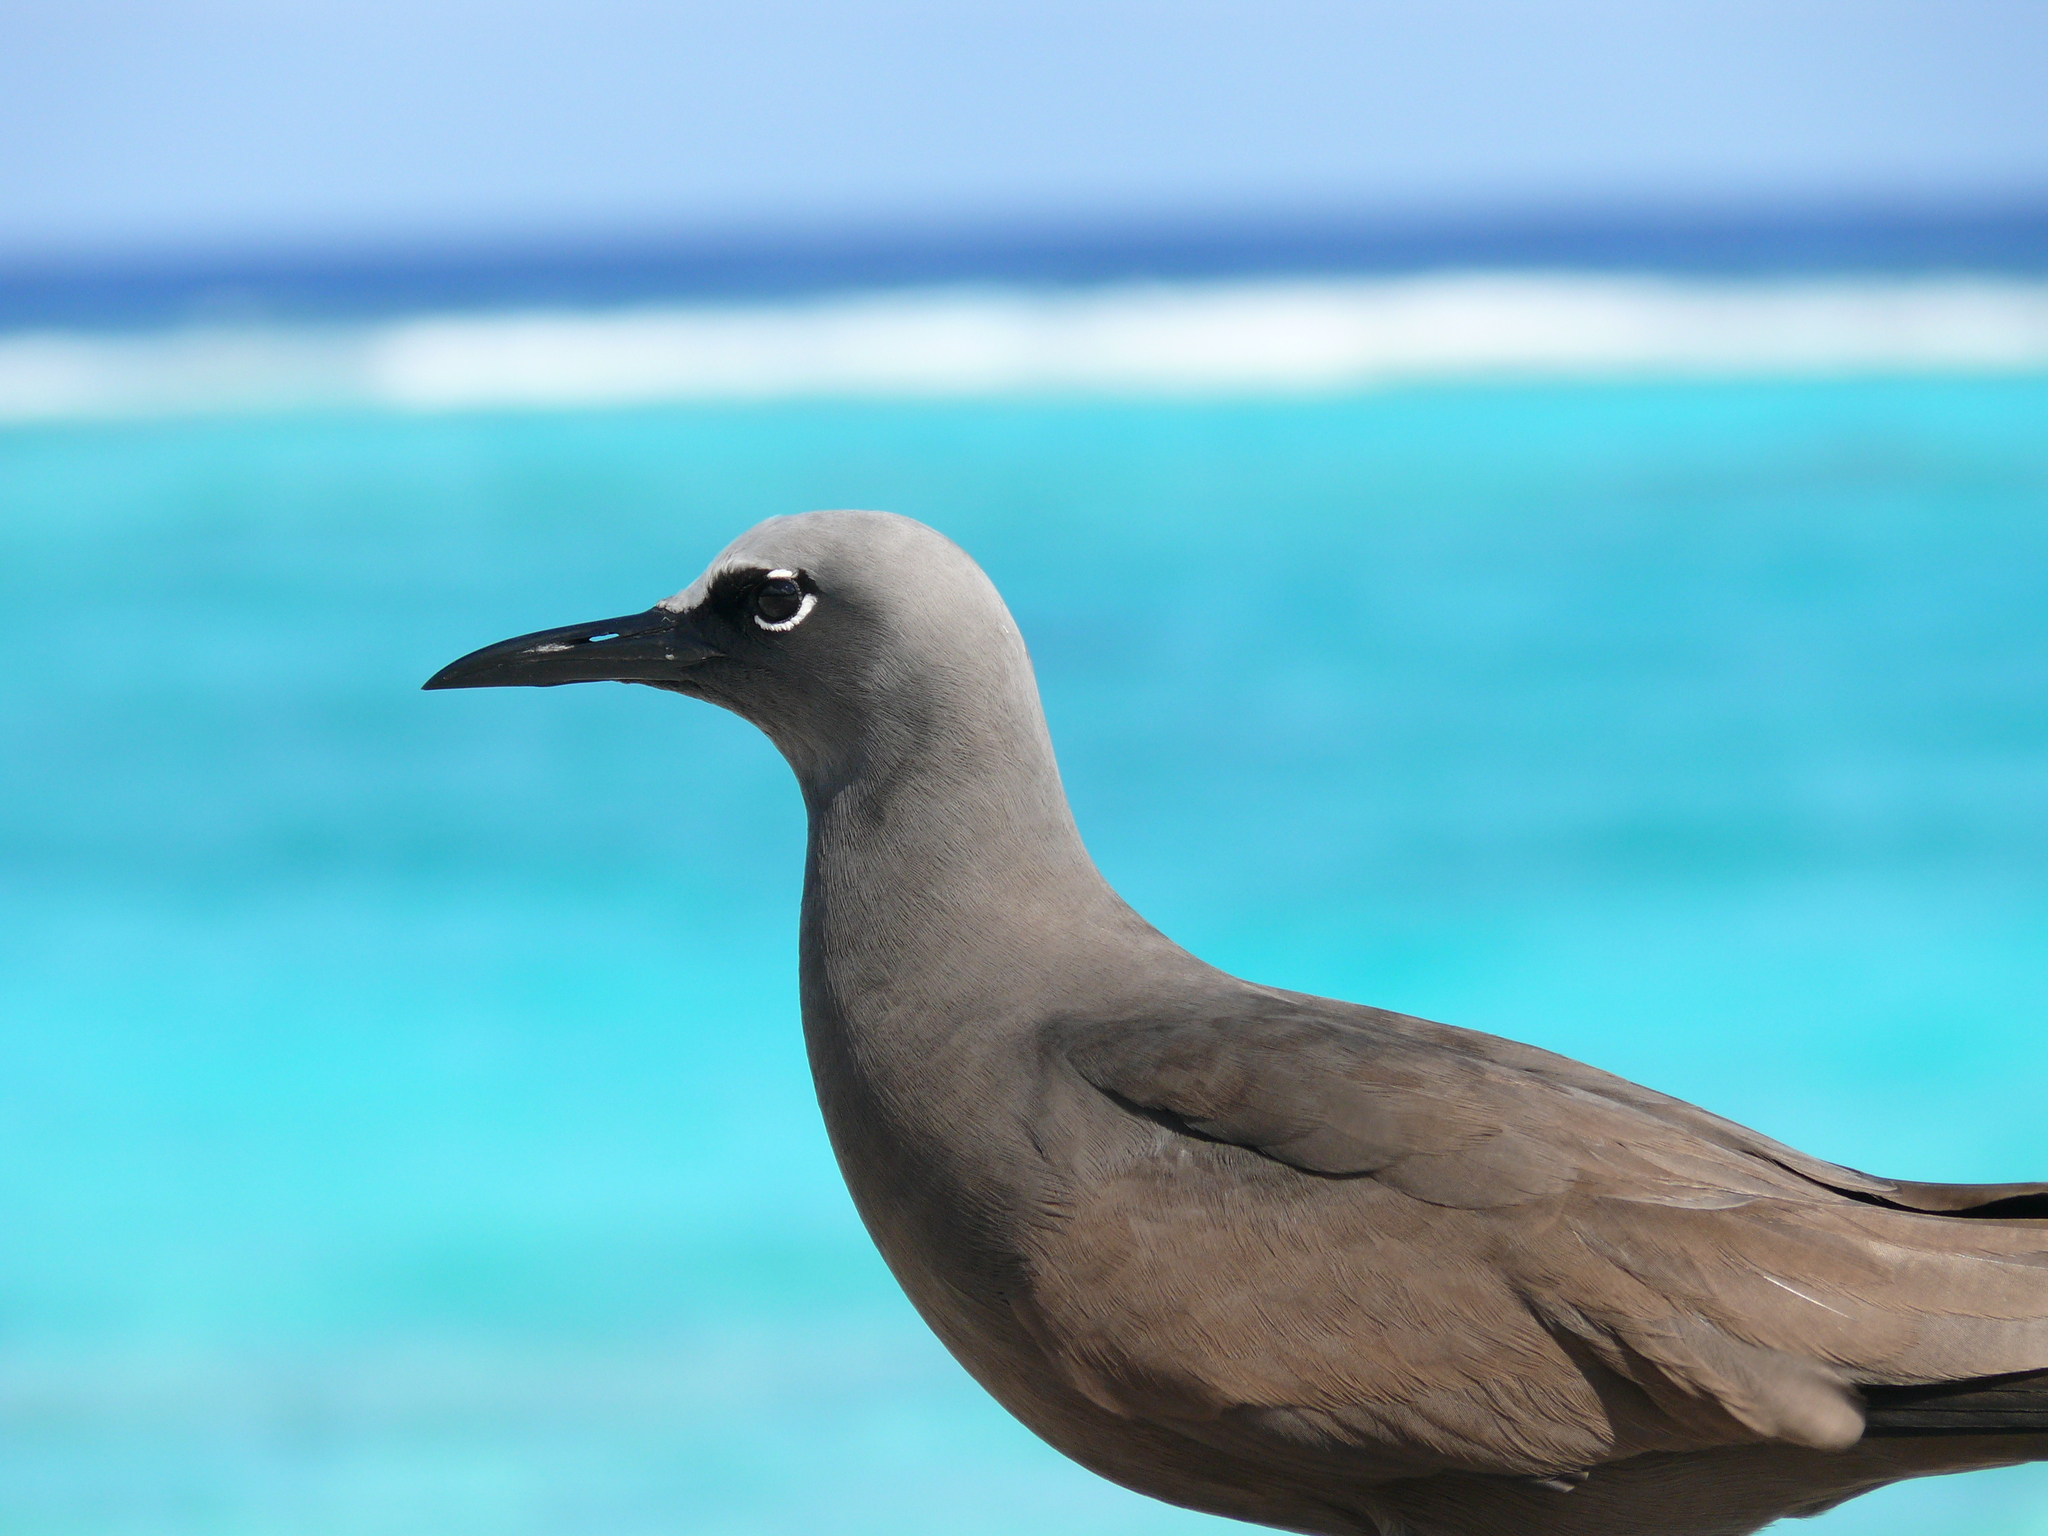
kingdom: Animalia
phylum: Chordata
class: Aves
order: Charadriiformes
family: Laridae
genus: Anous
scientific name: Anous stolidus
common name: Brown noddy
